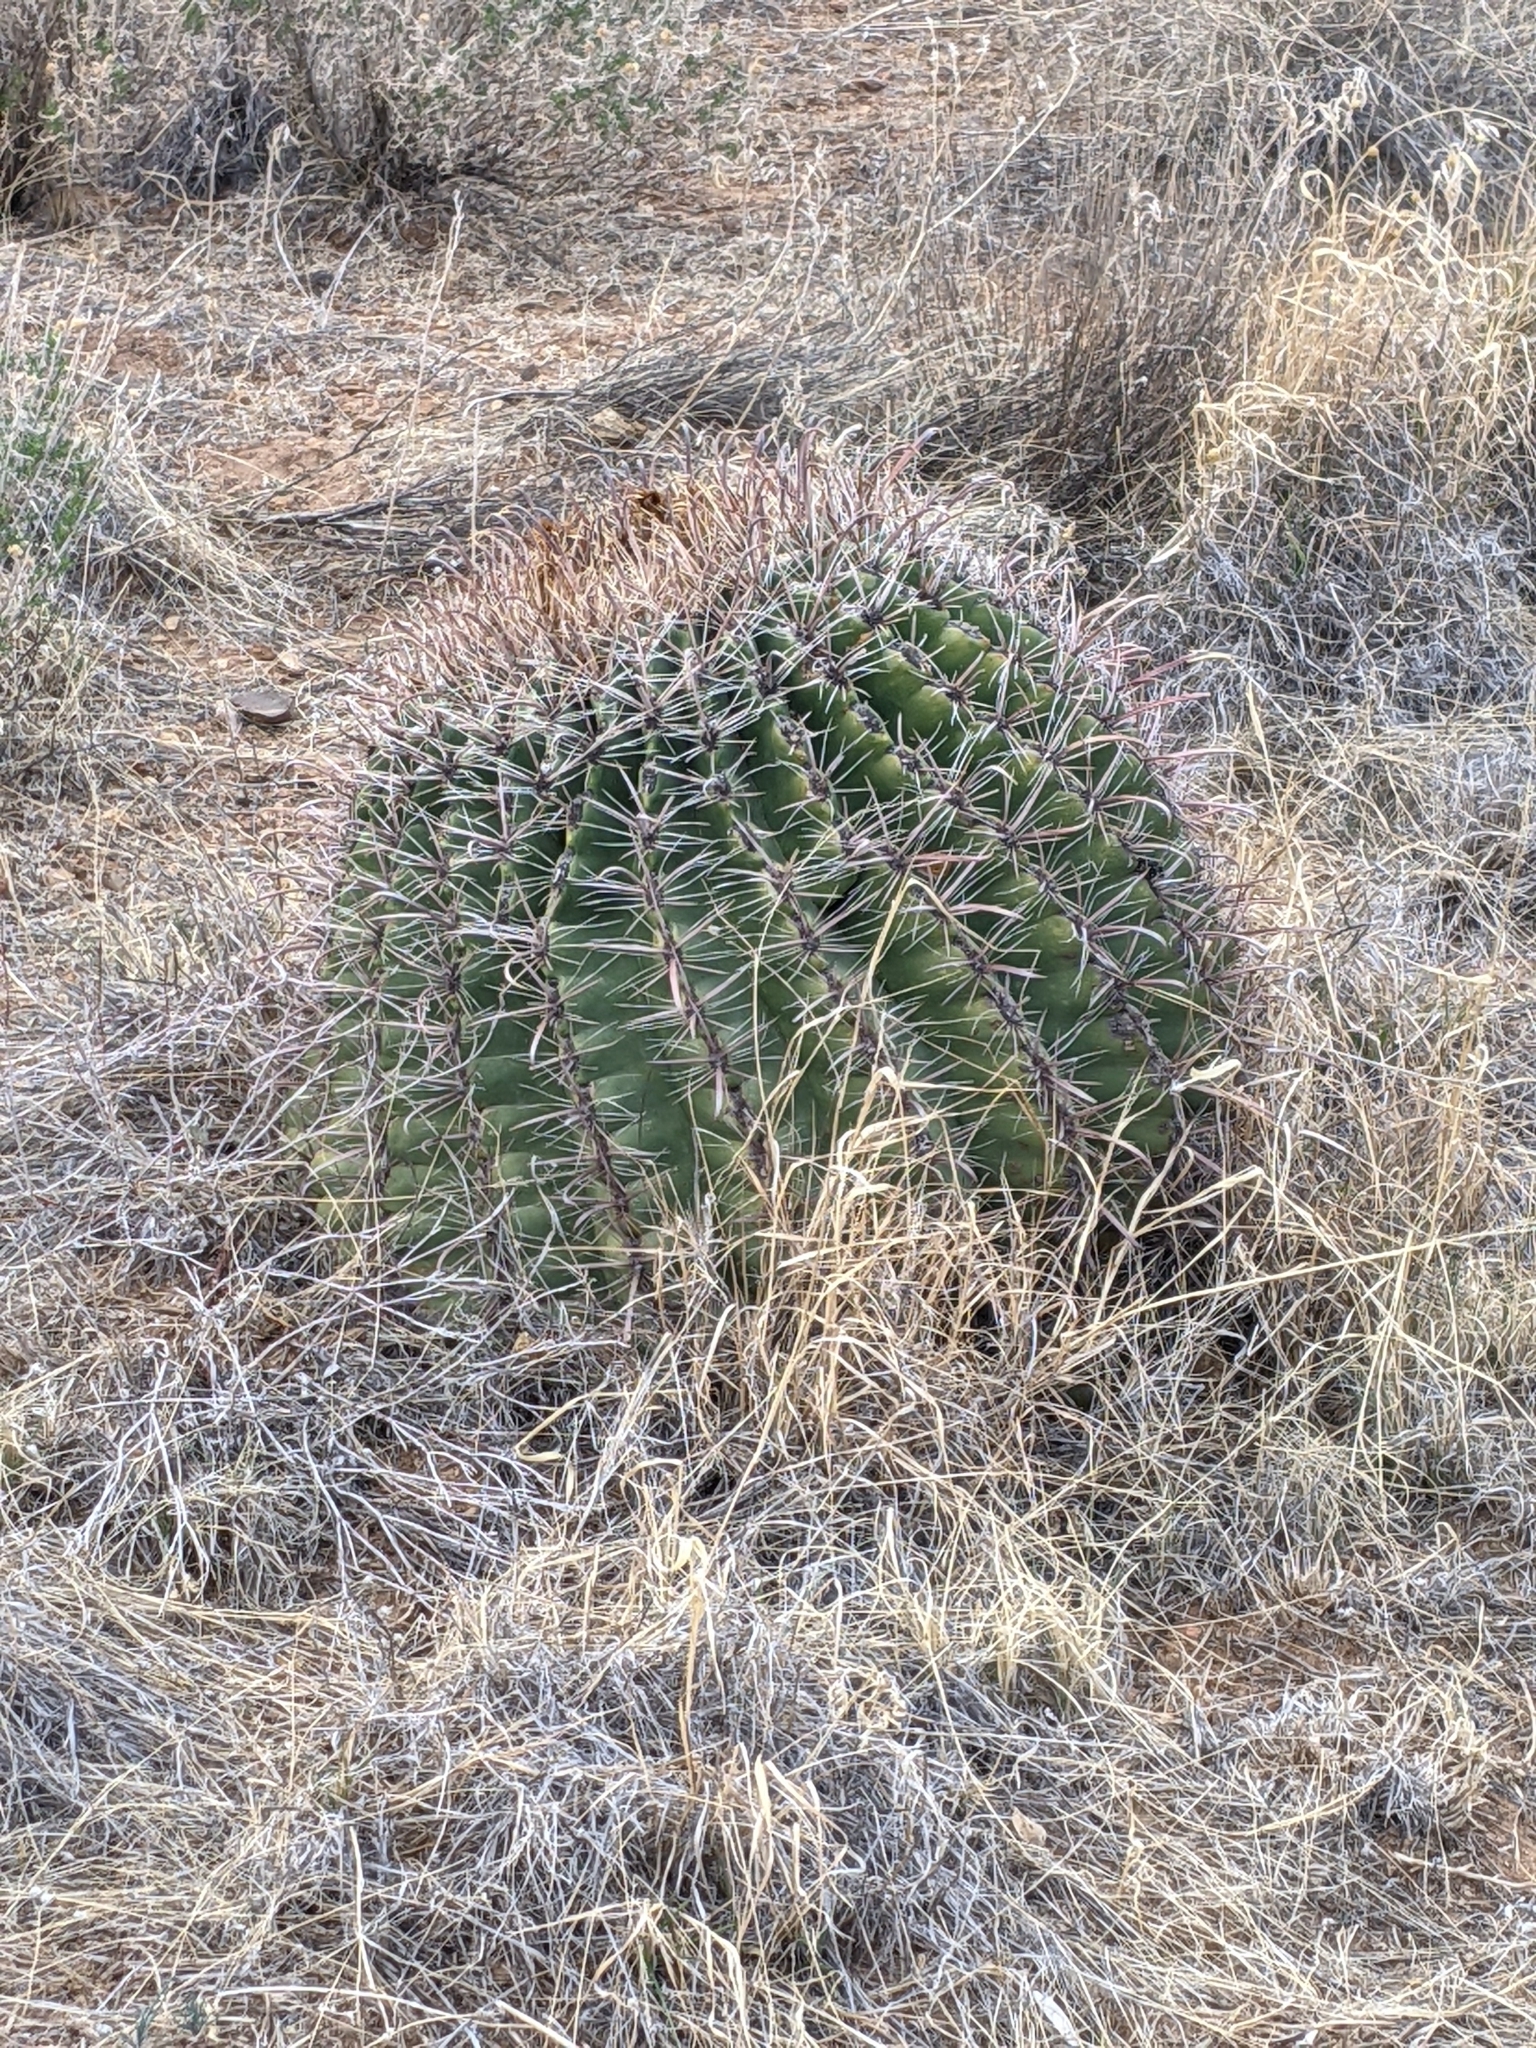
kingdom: Plantae
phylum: Tracheophyta
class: Magnoliopsida
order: Caryophyllales
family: Cactaceae
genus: Ferocactus
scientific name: Ferocactus wislizeni
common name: Candy barrel cactus
